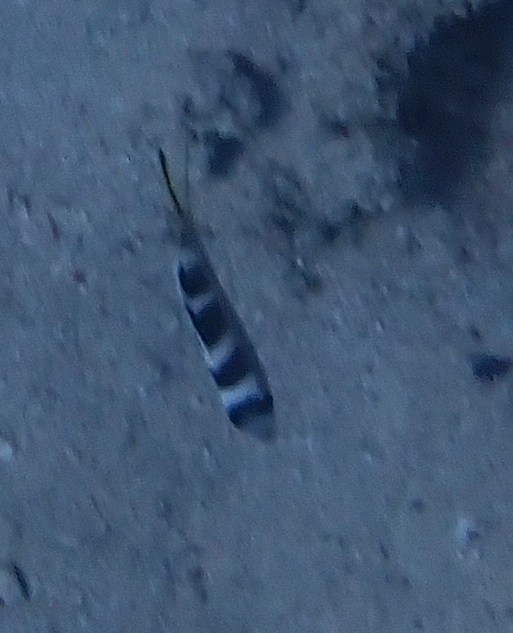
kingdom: Animalia
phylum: Chordata
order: Perciformes
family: Lethrinidae
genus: Monotaxis
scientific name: Monotaxis grandoculis
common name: Bigeye emperor
